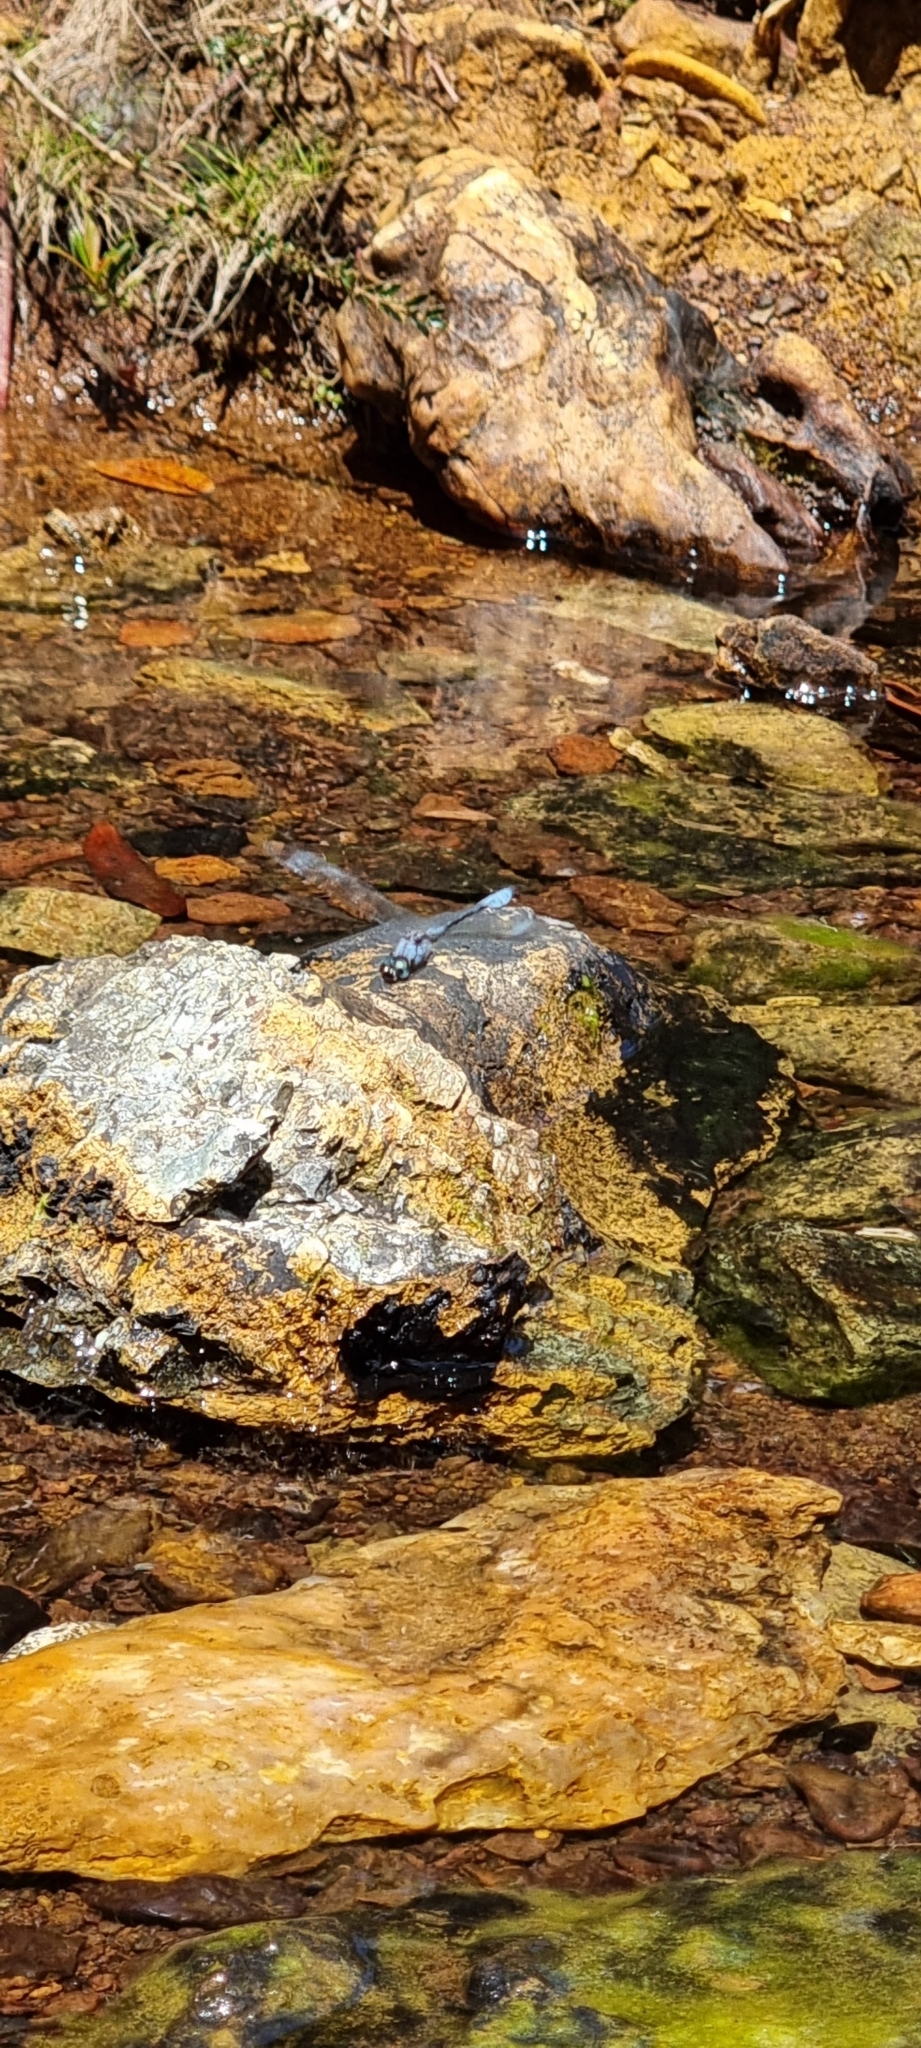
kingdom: Animalia
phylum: Arthropoda
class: Insecta
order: Odonata
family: Libellulidae
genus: Scapanea
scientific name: Scapanea frontalis
